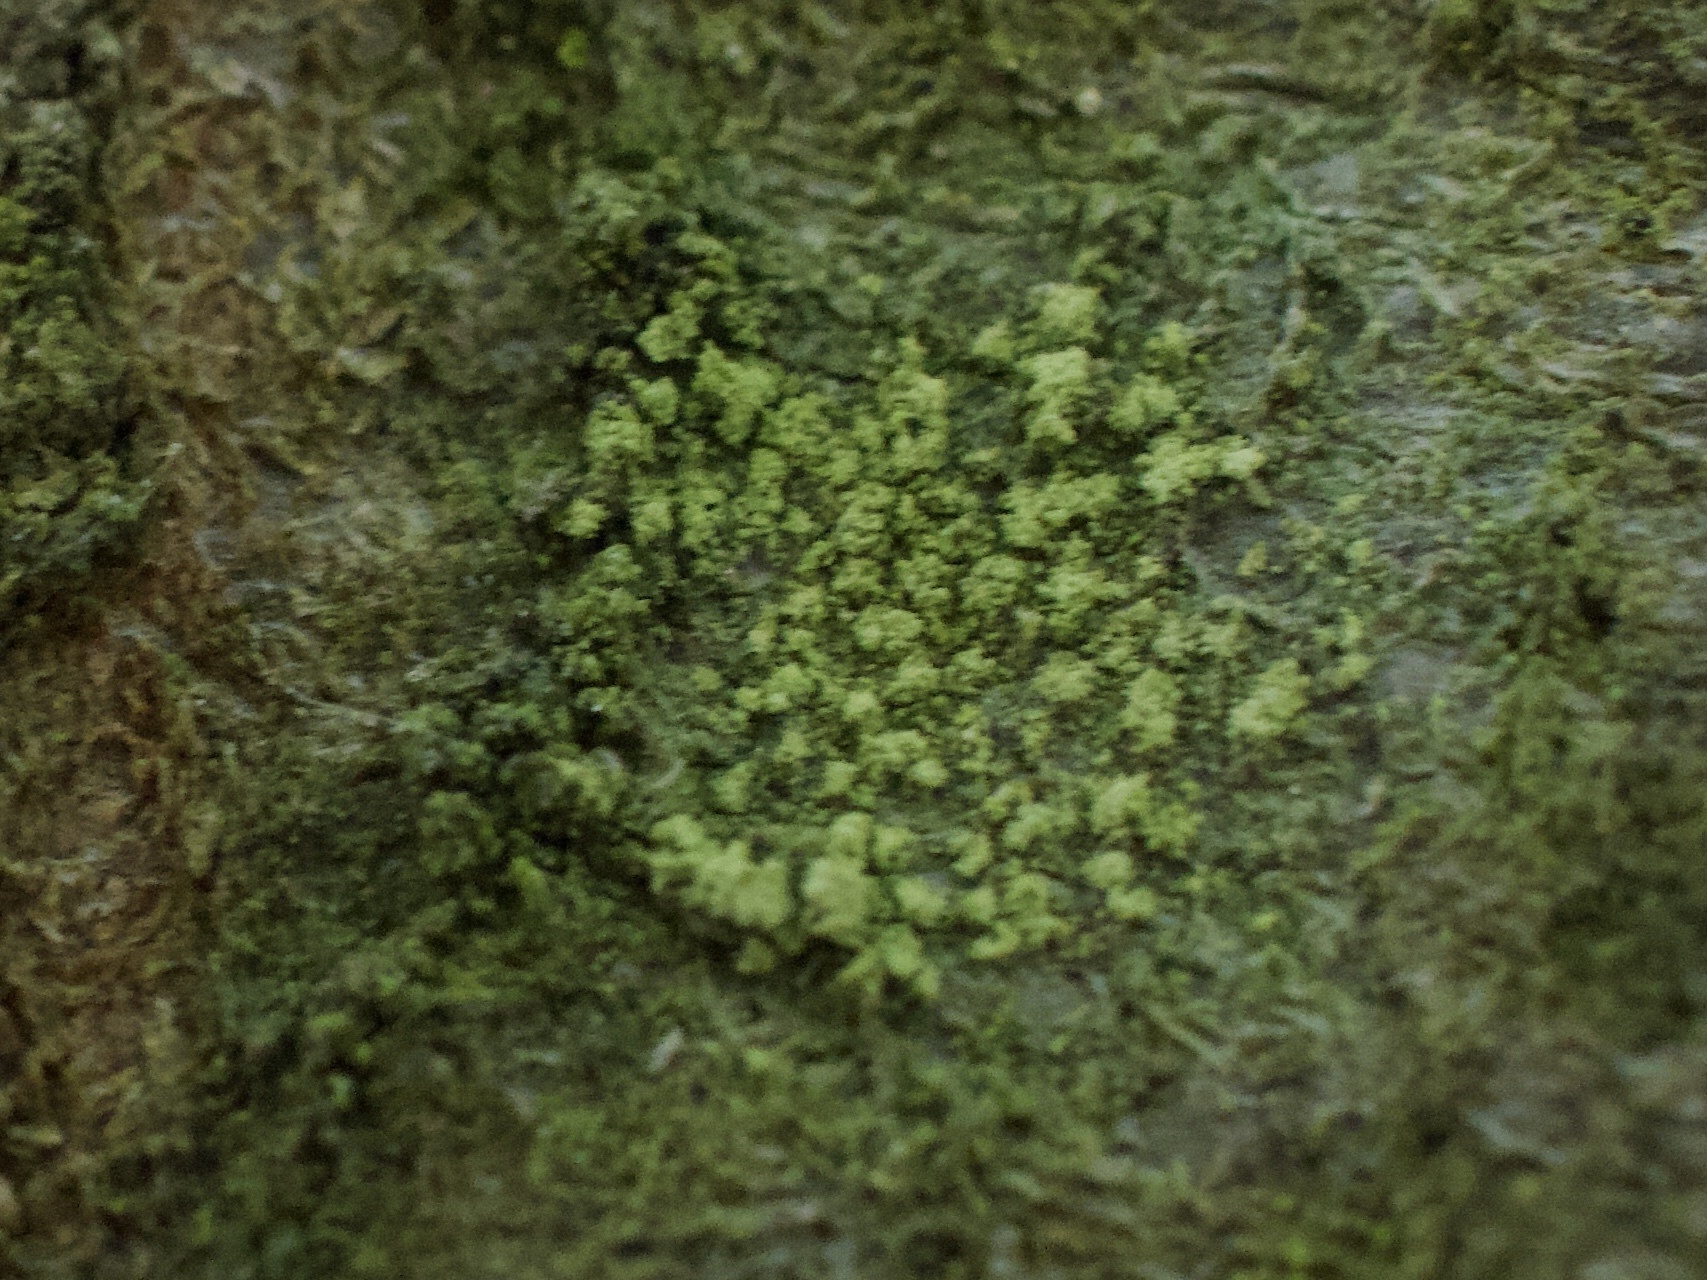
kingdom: Fungi
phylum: Ascomycota
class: Lecanoromycetes
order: Lecanorales
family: Ramalinaceae
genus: Lecania
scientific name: Lecania croatica
